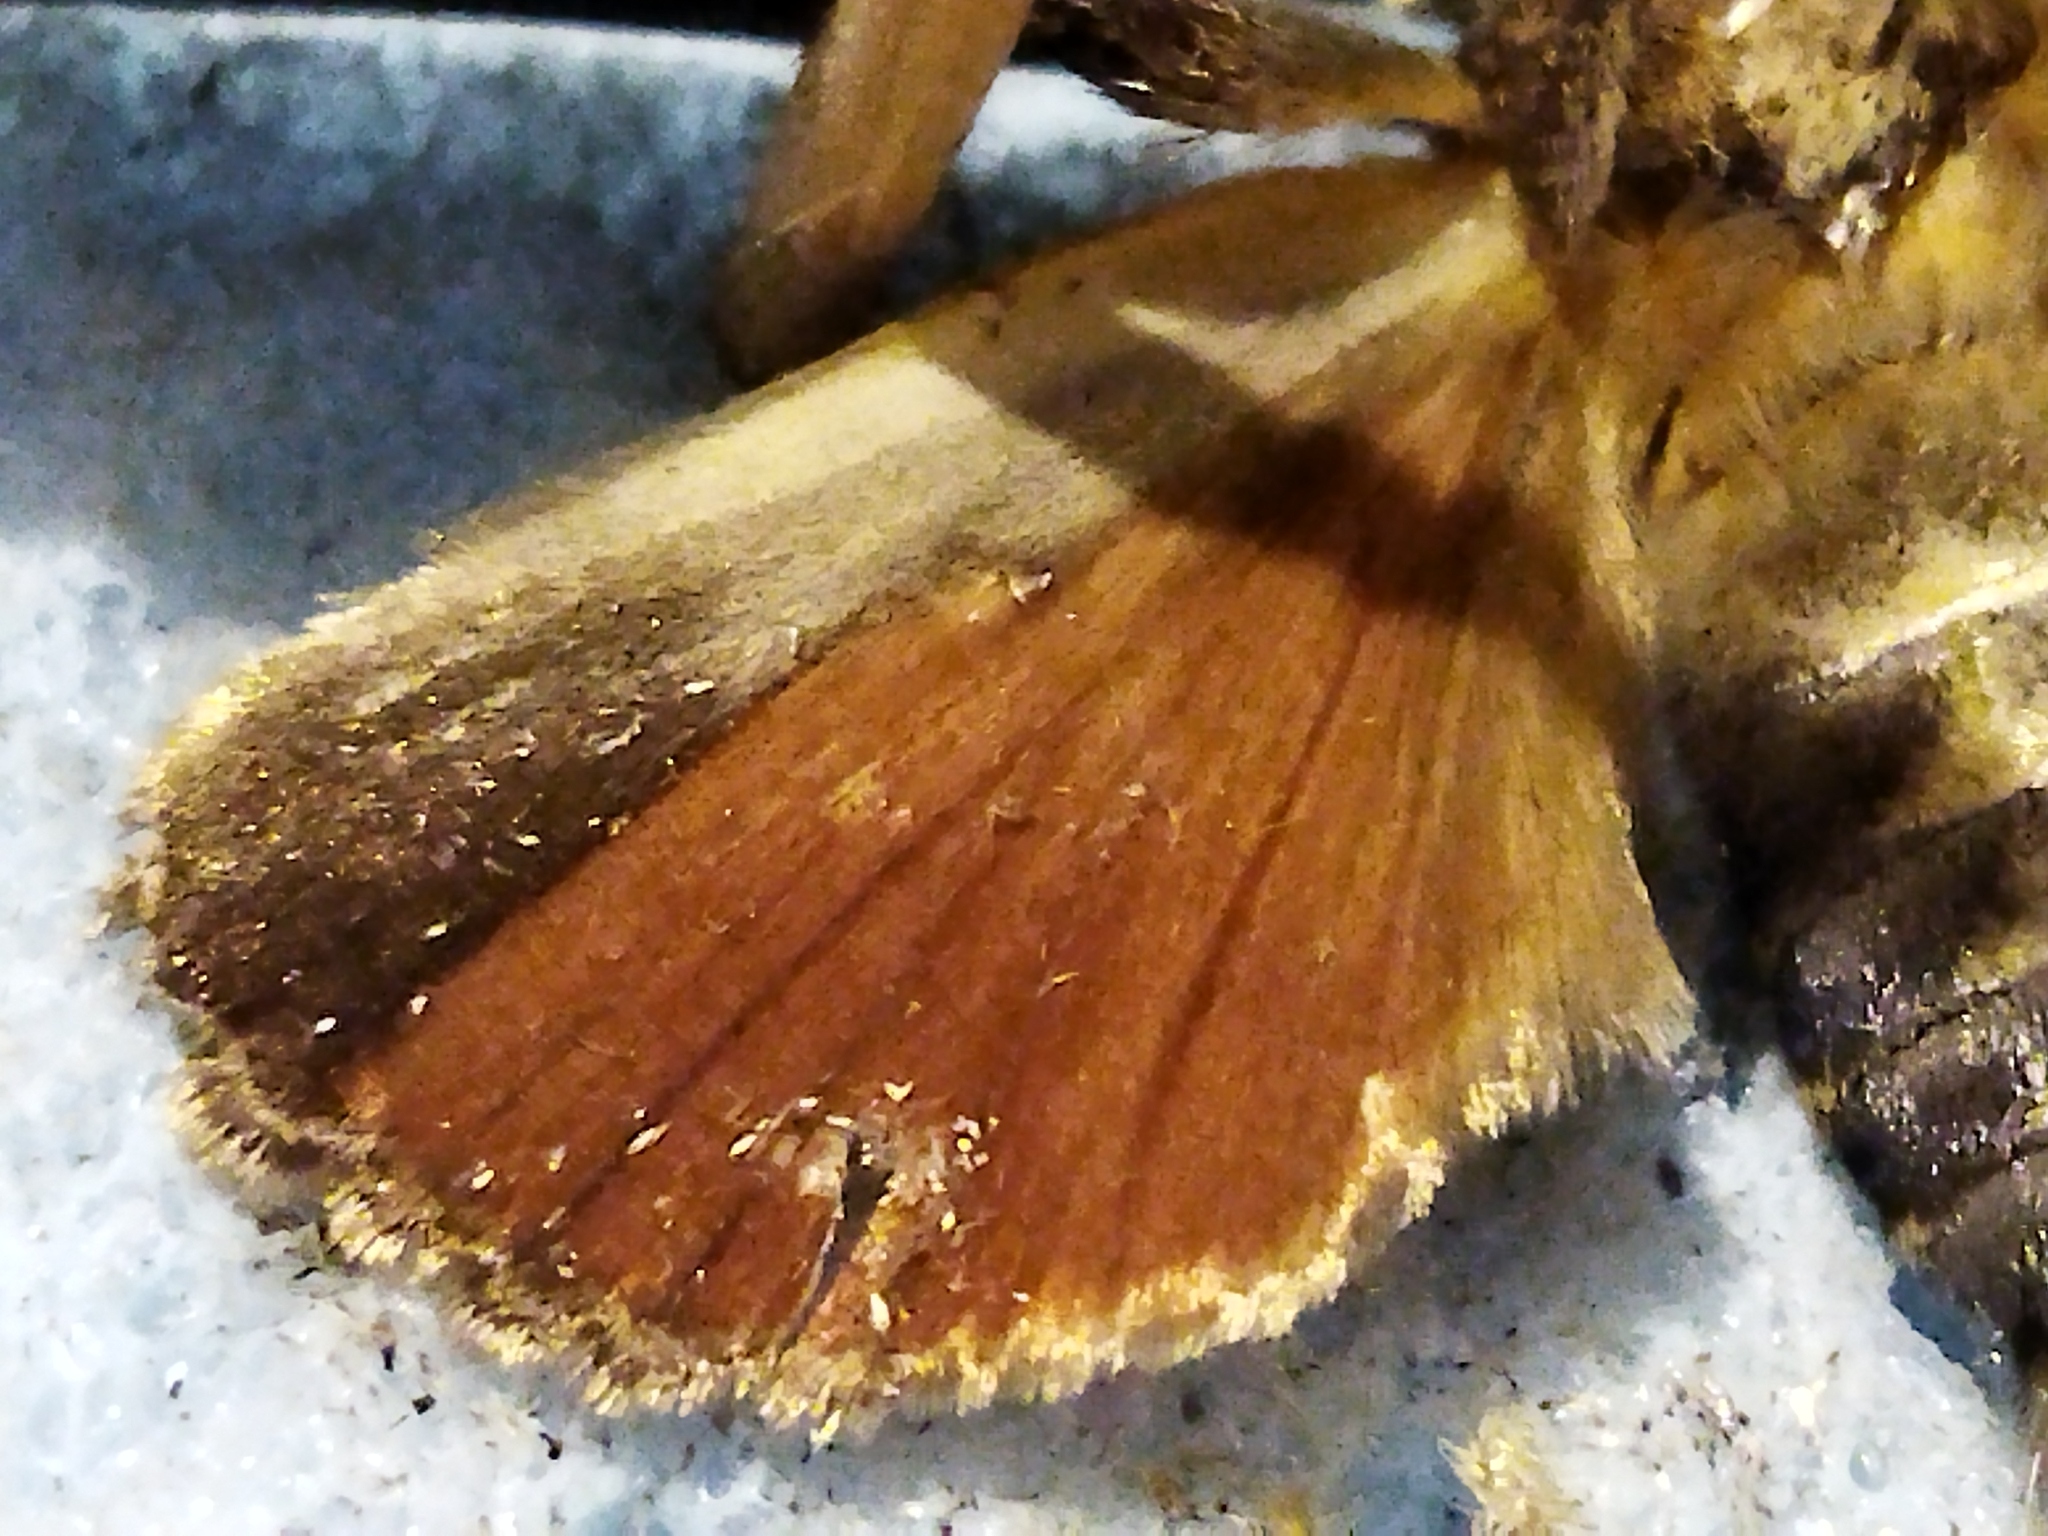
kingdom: Animalia
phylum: Arthropoda
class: Insecta
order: Lepidoptera
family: Noctuidae
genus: Amphipyra
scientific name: Amphipyra pyramidea
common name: Copper underwing
